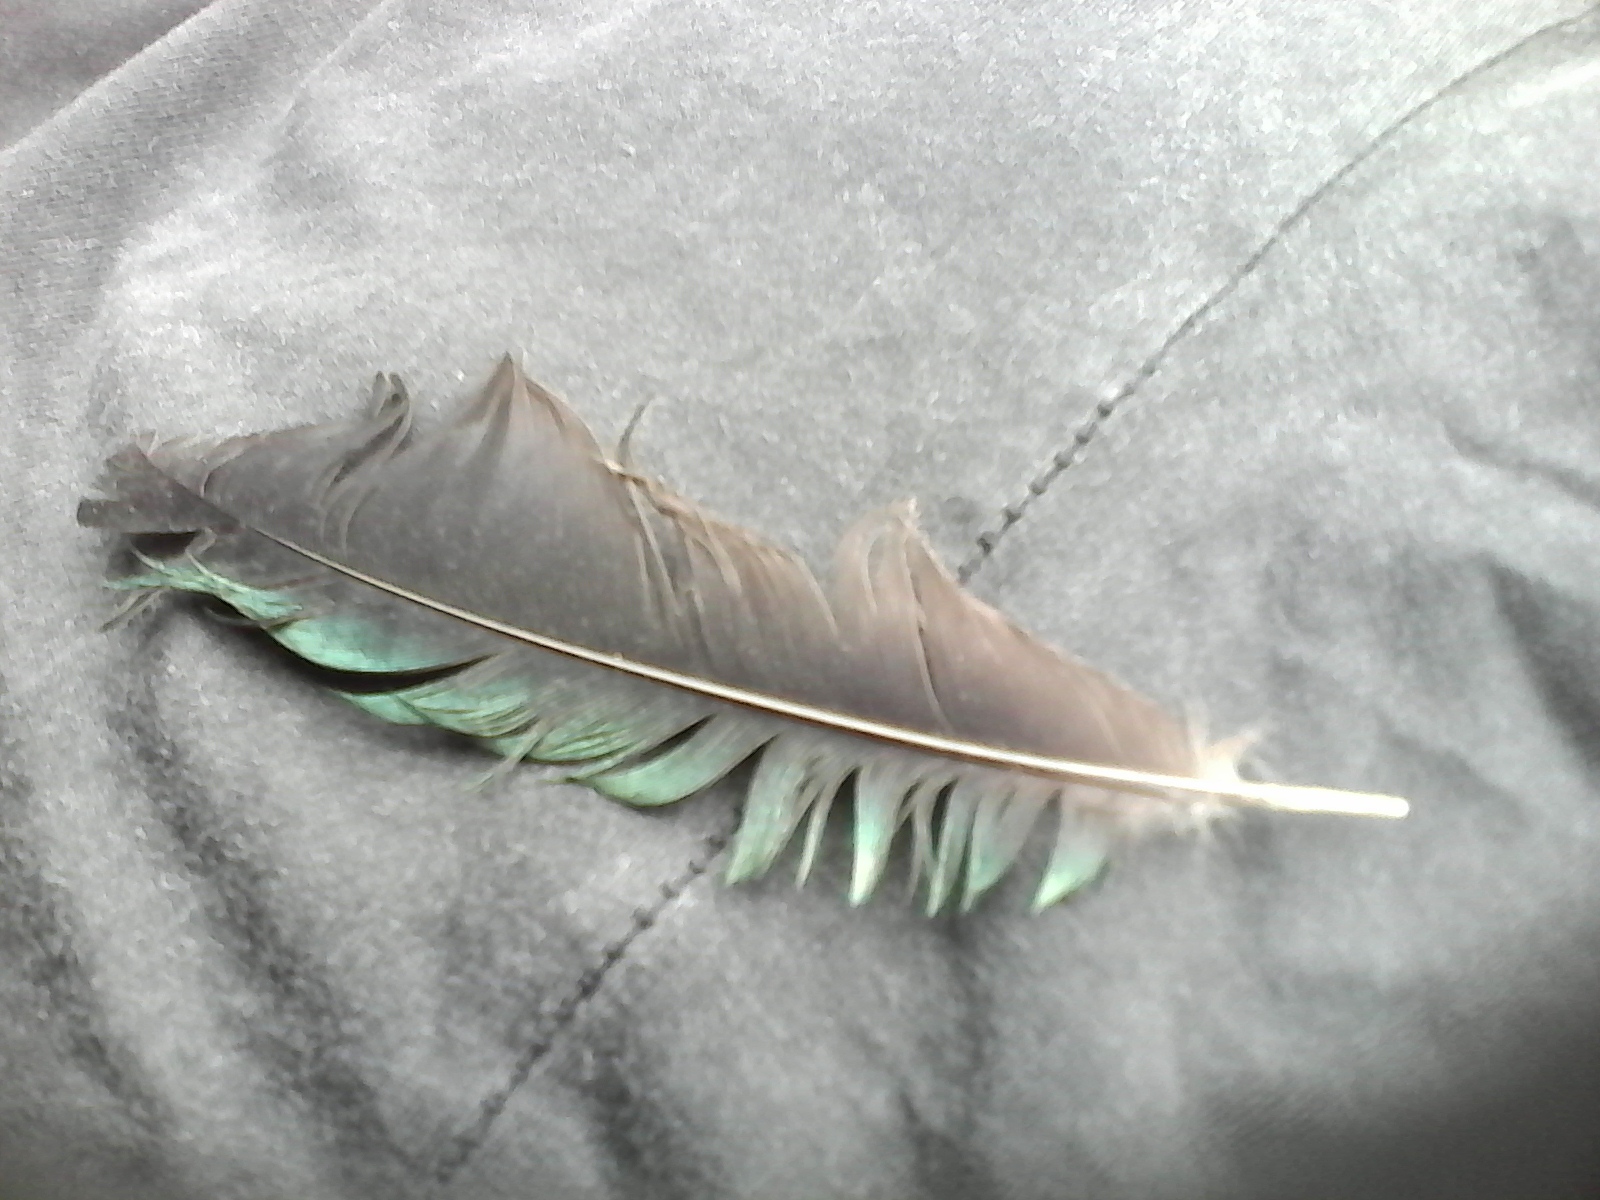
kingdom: Animalia
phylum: Chordata
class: Aves
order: Passeriformes
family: Meliphagidae
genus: Prosthemadera
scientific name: Prosthemadera novaeseelandiae
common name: Tui
